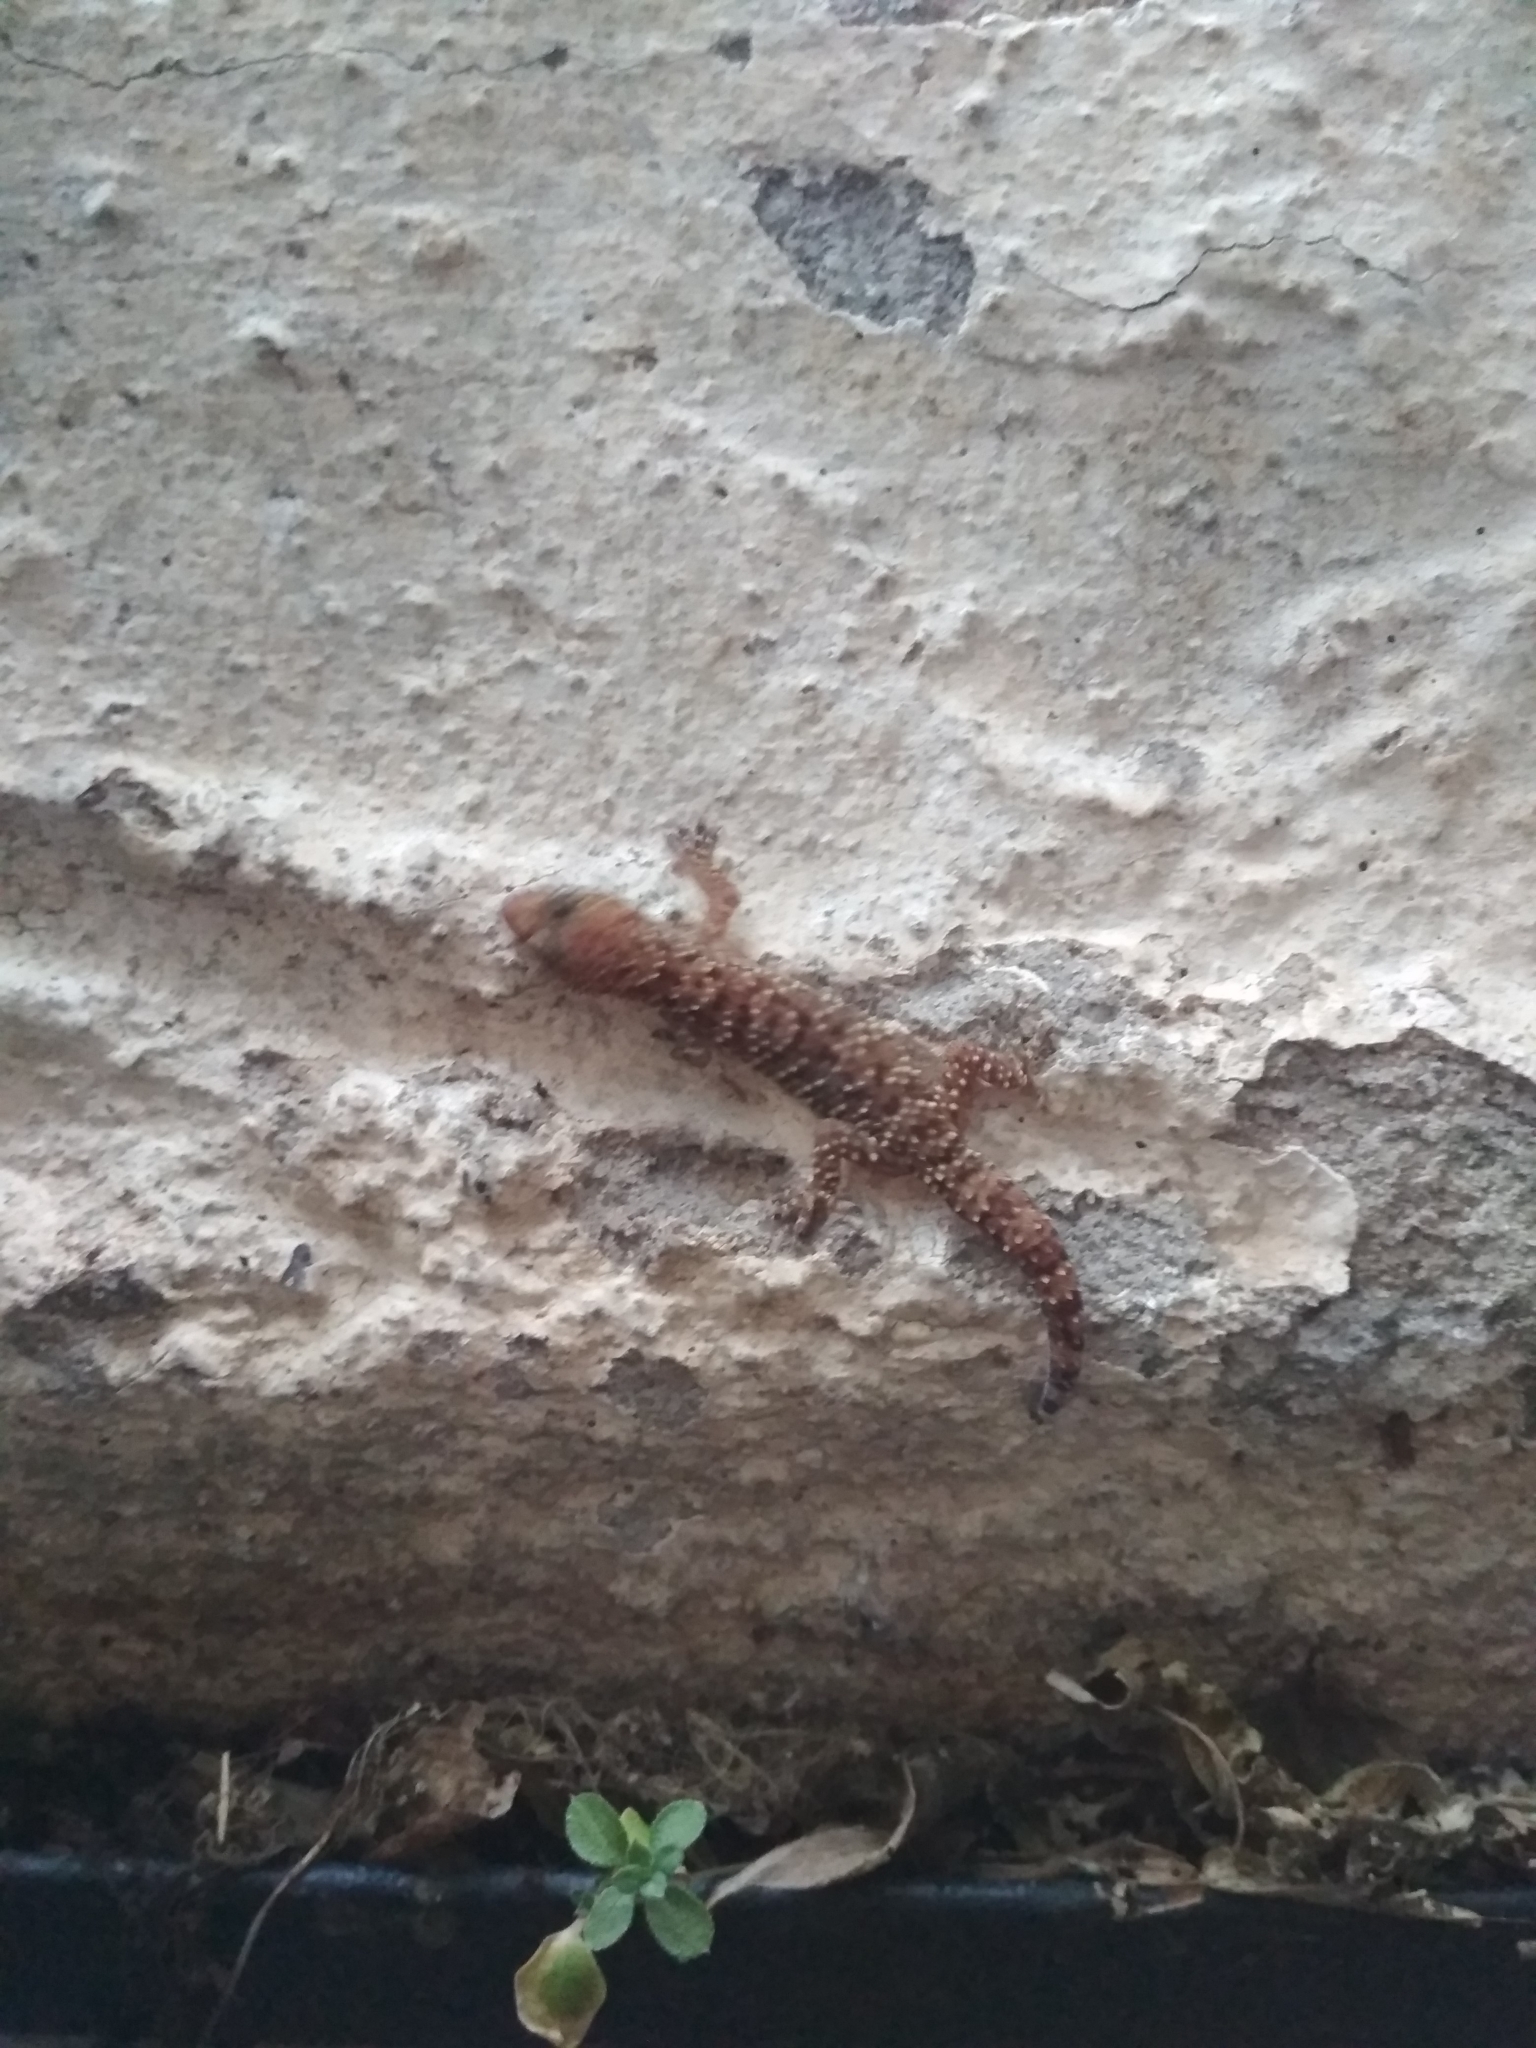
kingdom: Animalia
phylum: Chordata
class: Squamata
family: Gekkonidae
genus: Hemidactylus
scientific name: Hemidactylus turcicus
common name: Turkish gecko
